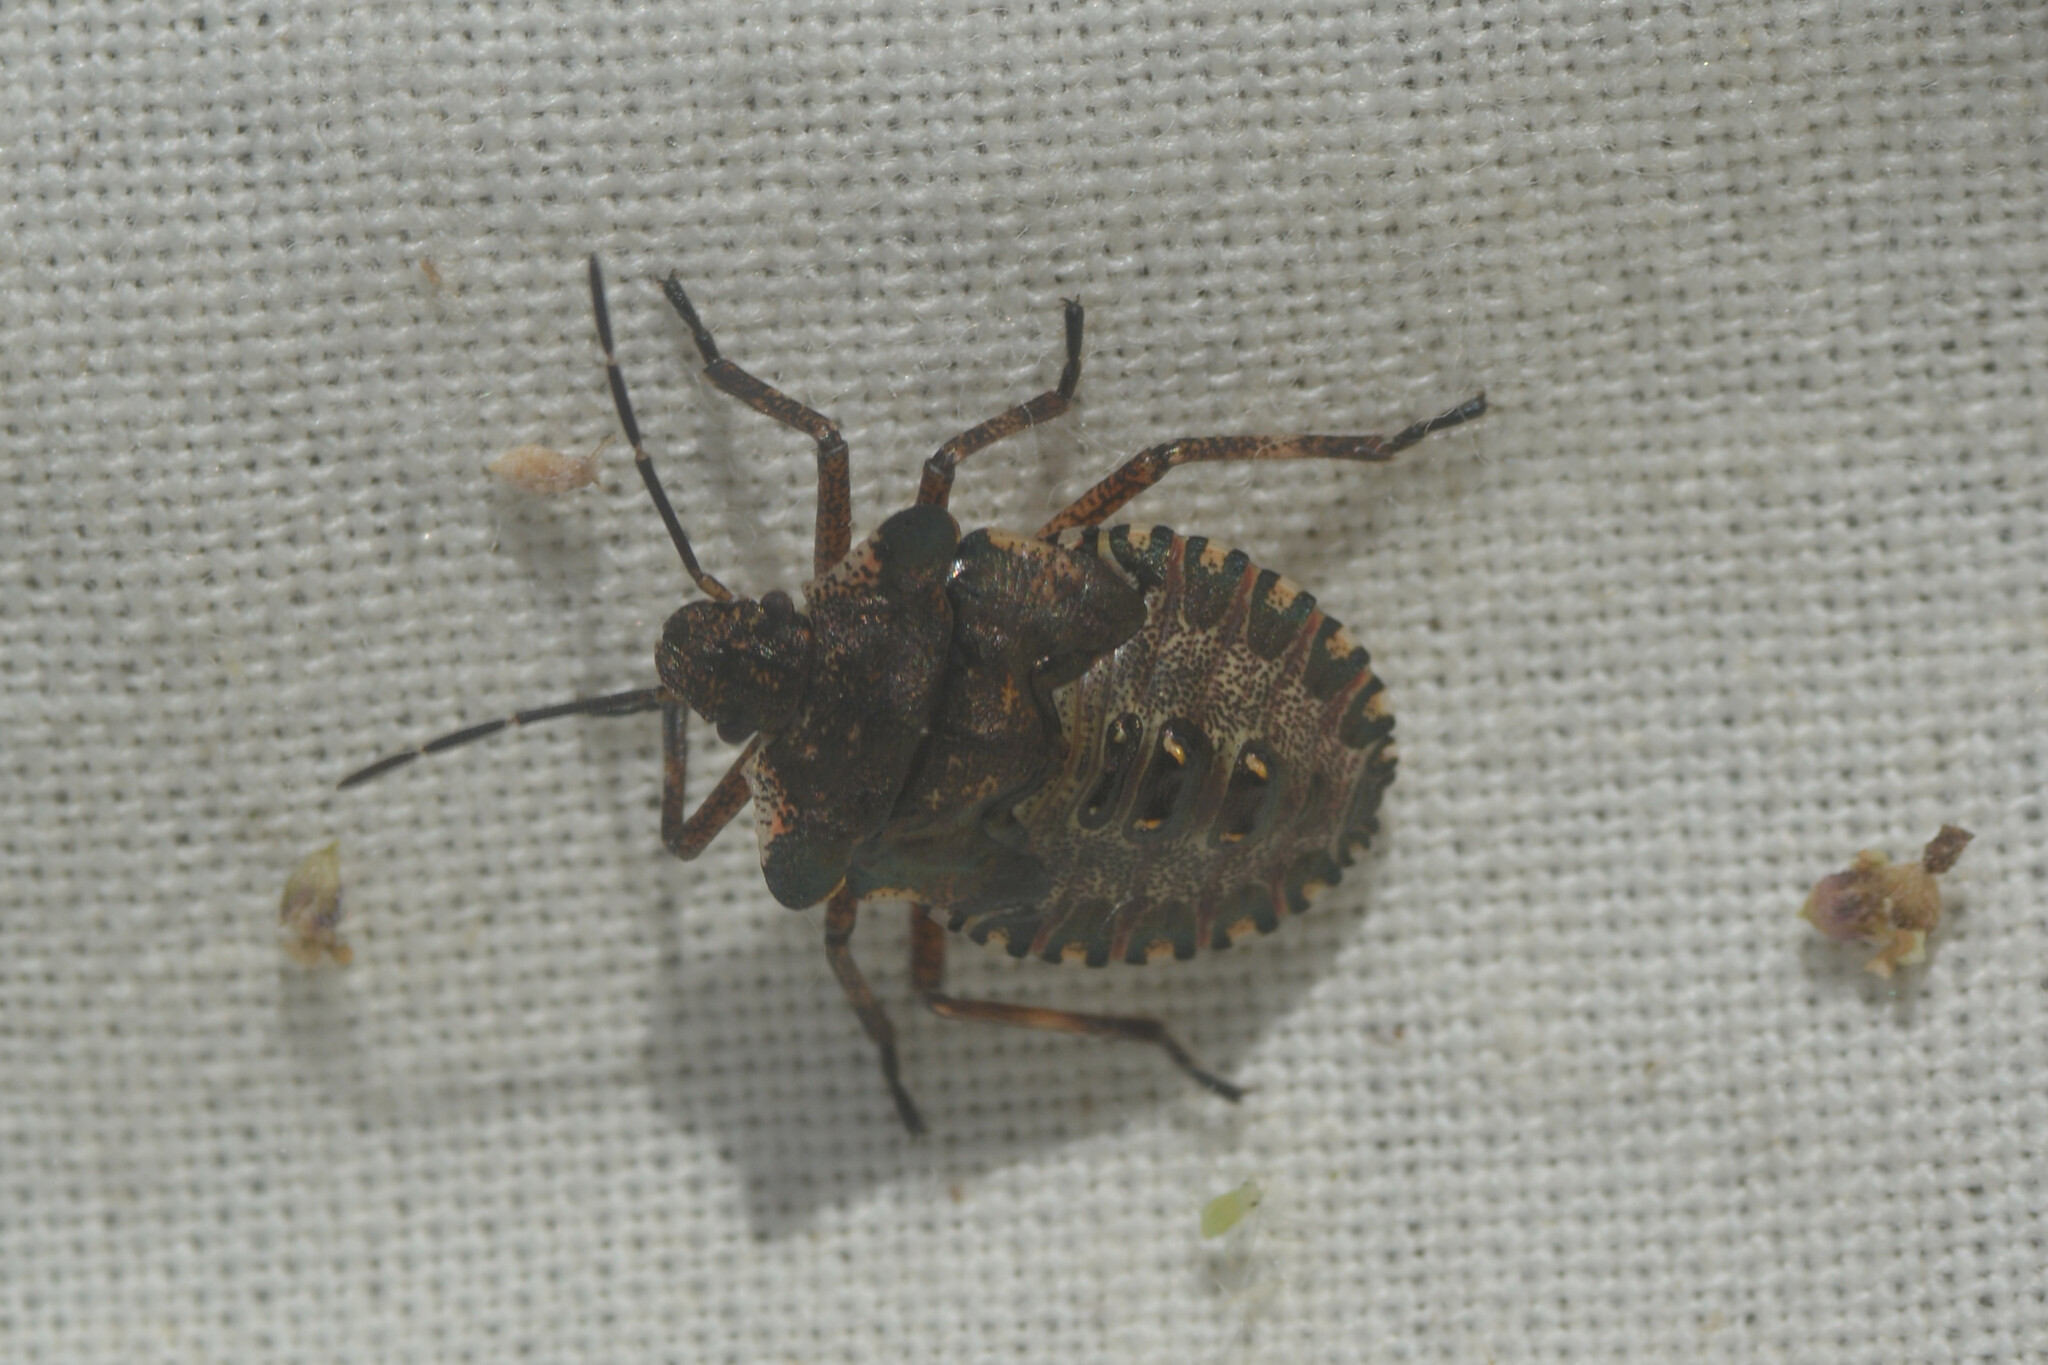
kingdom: Animalia
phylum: Arthropoda
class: Insecta
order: Hemiptera
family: Pentatomidae
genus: Pentatoma
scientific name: Pentatoma rufipes
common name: Forest bug
